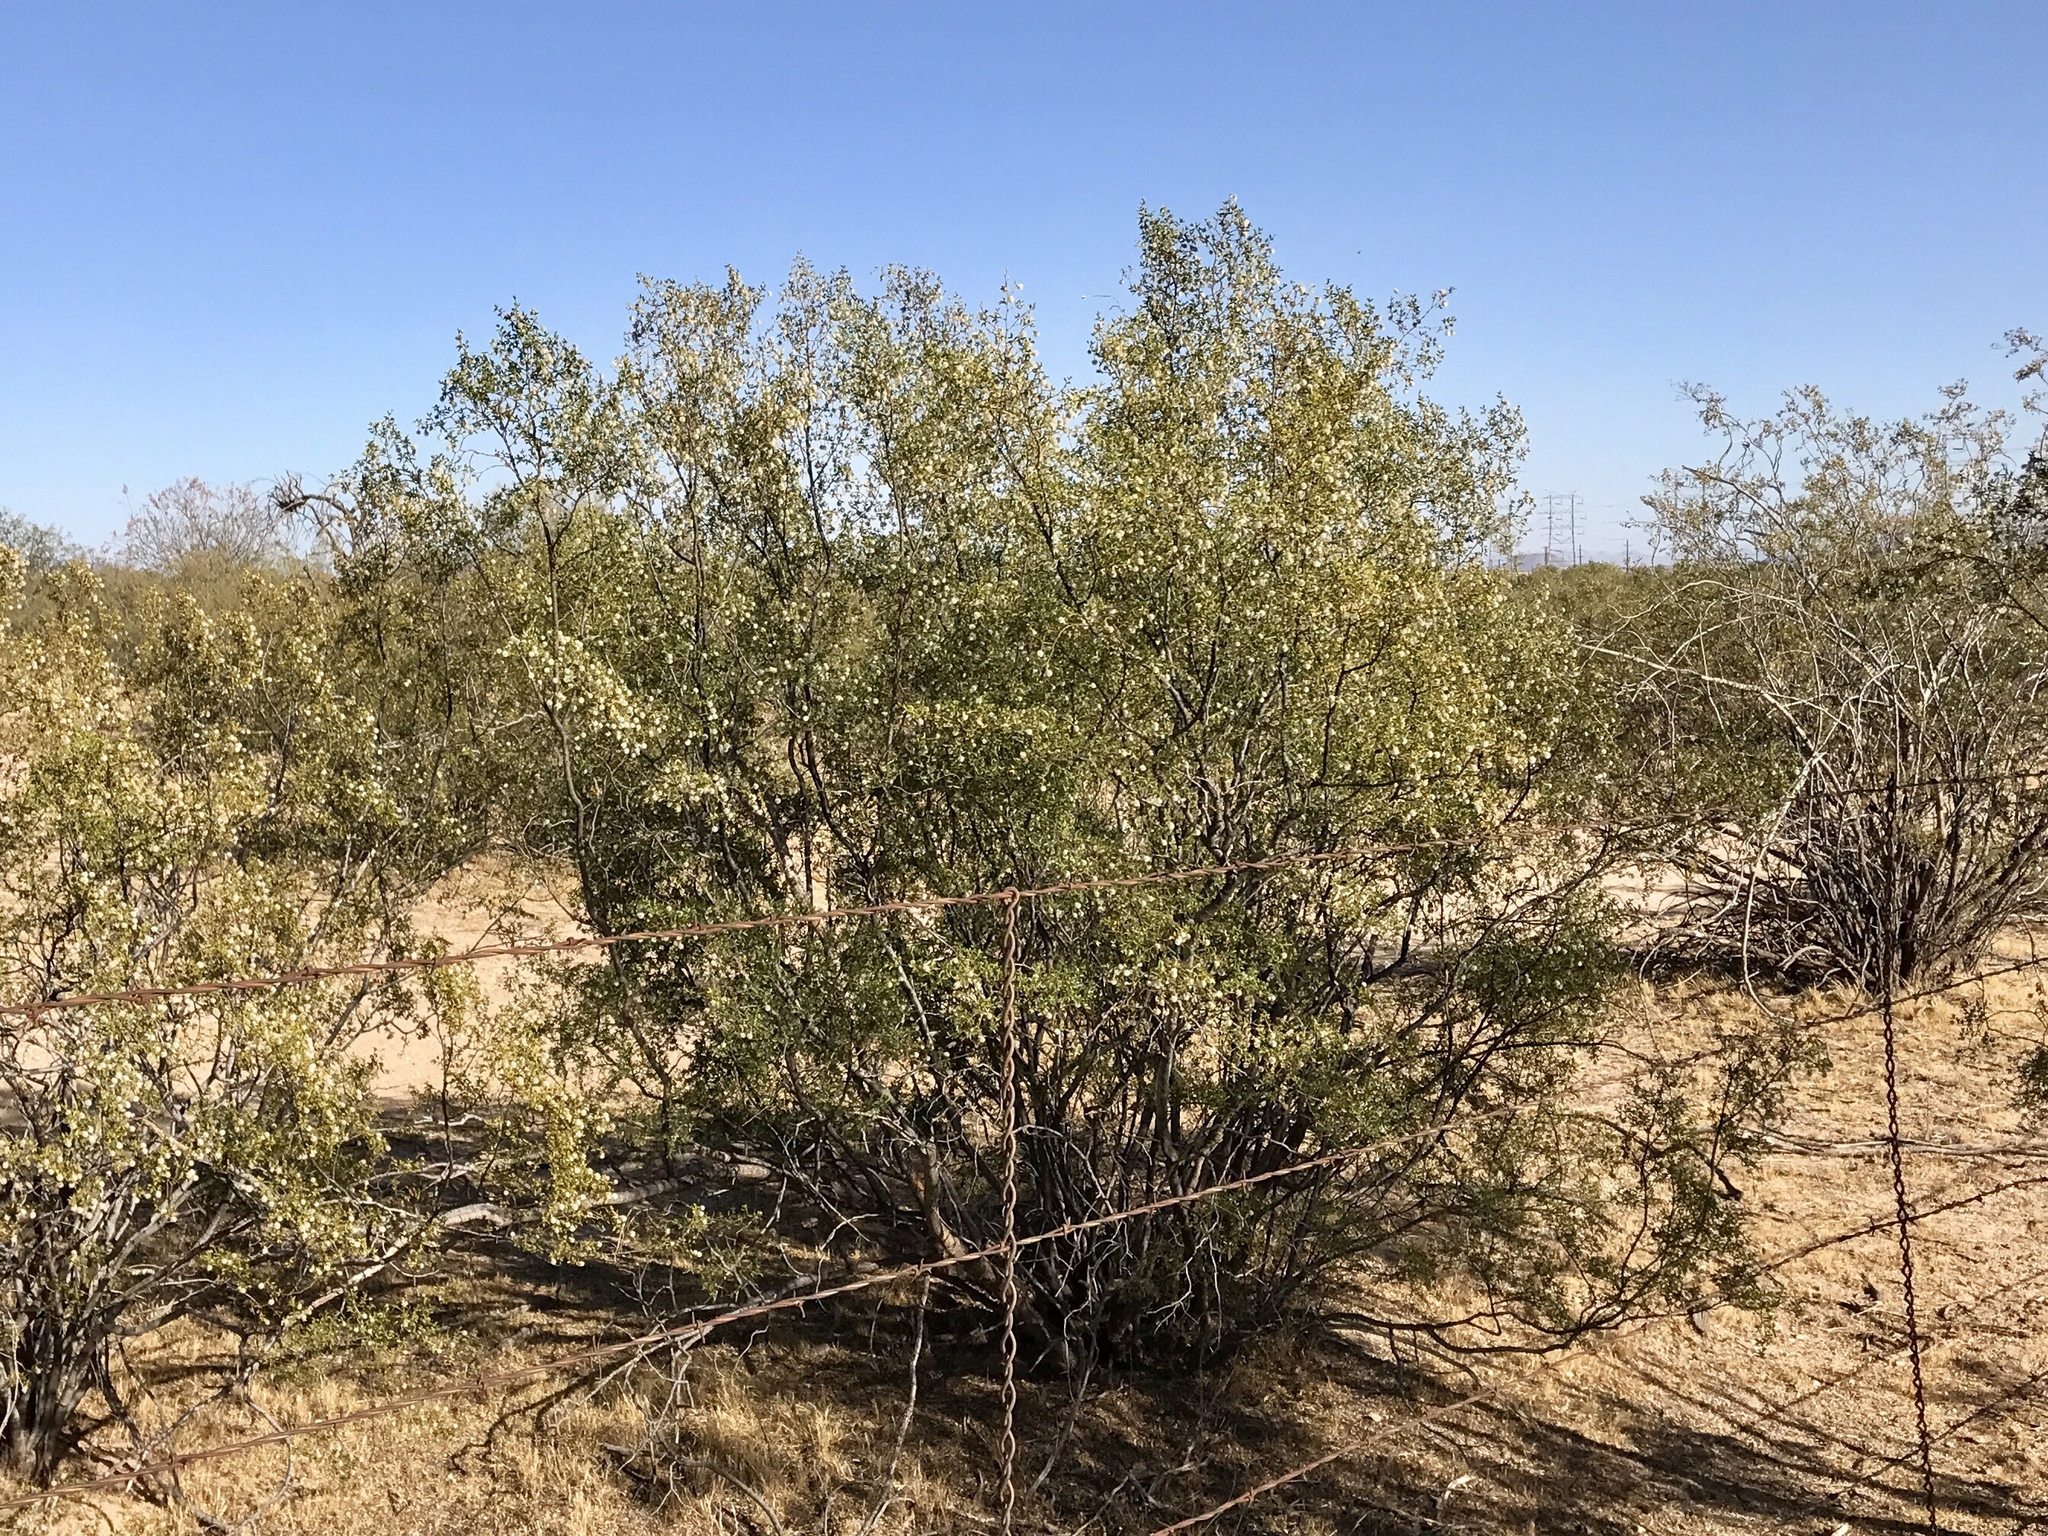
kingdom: Plantae
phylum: Tracheophyta
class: Magnoliopsida
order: Zygophyllales
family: Zygophyllaceae
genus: Larrea
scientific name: Larrea tridentata
